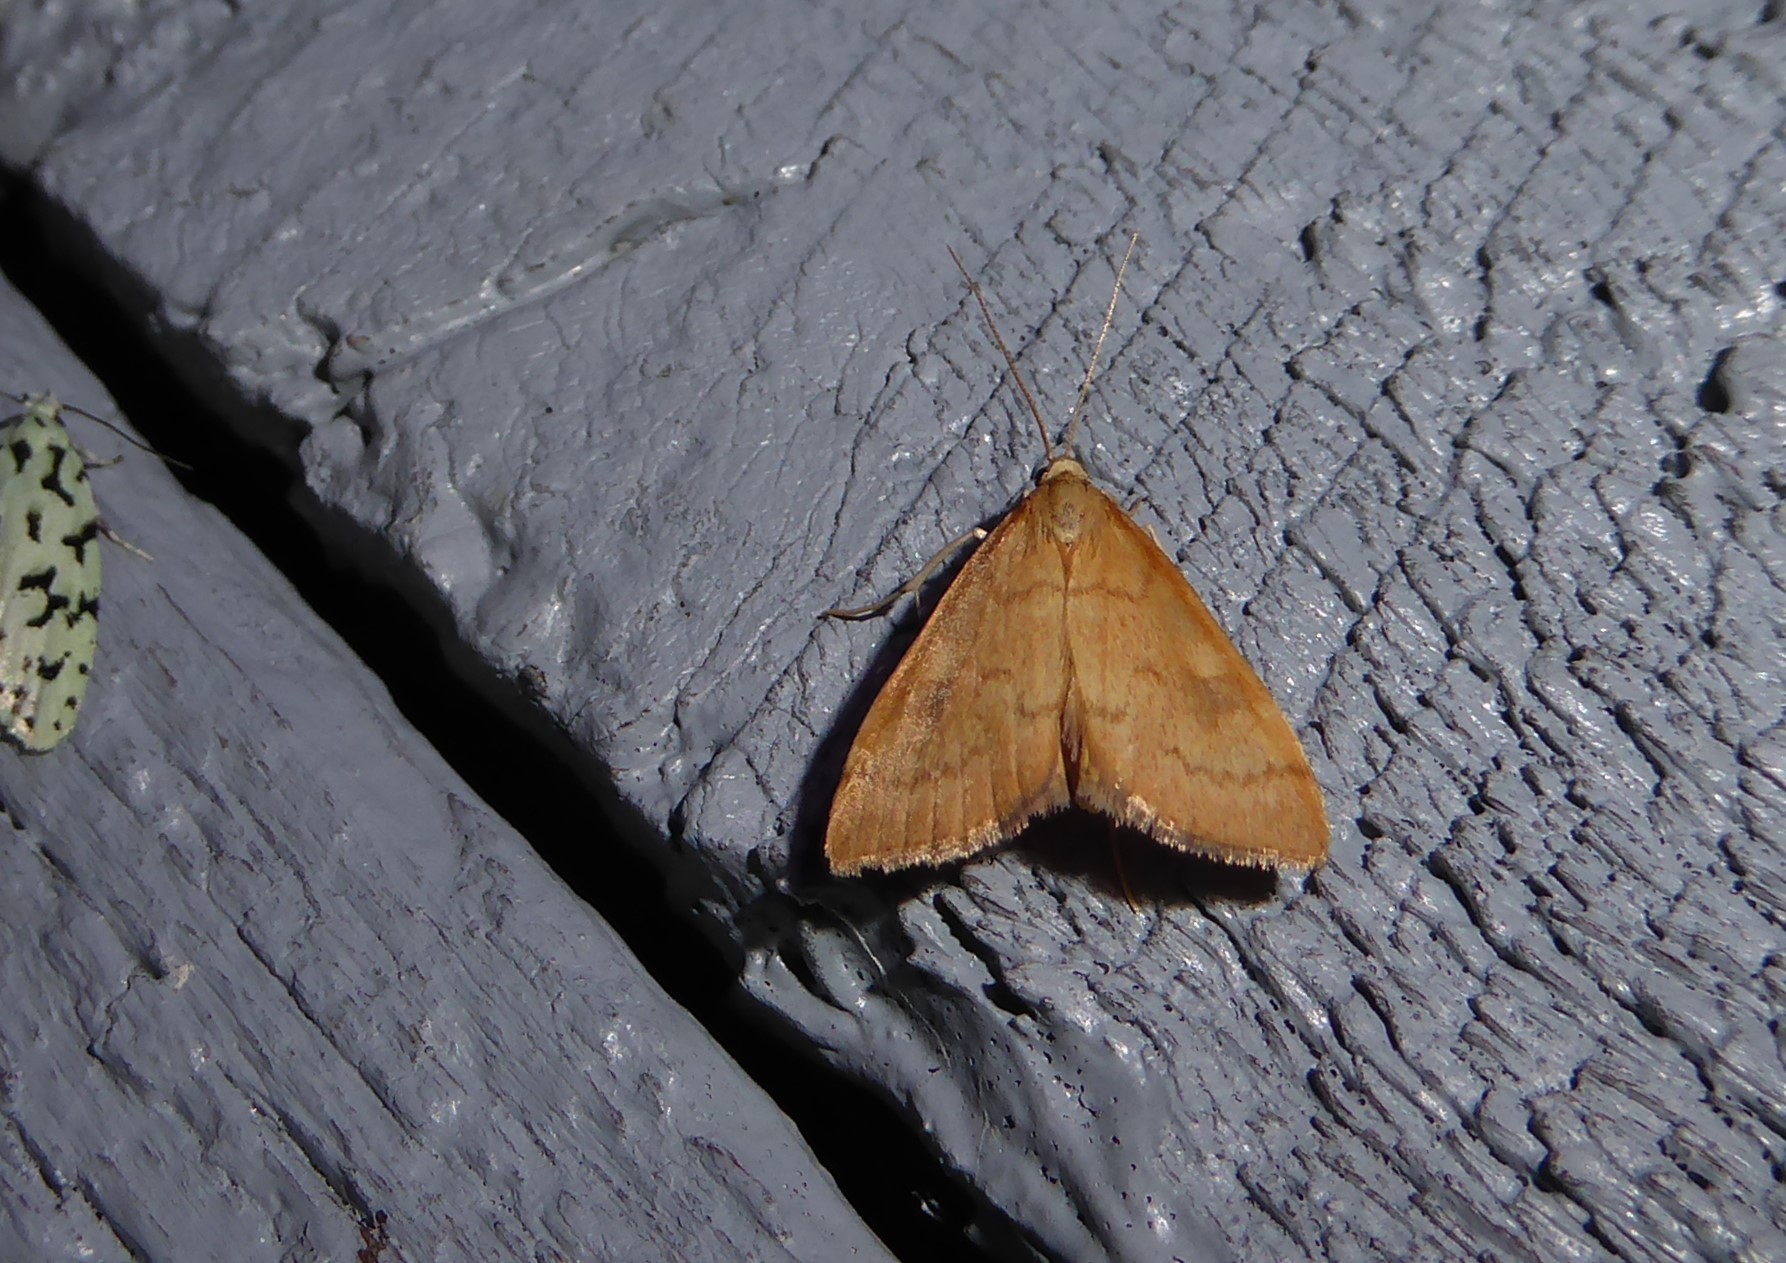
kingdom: Animalia
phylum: Arthropoda
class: Insecta
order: Lepidoptera
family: Crambidae
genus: Udea
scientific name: Udea Mnesictena flavidalis
